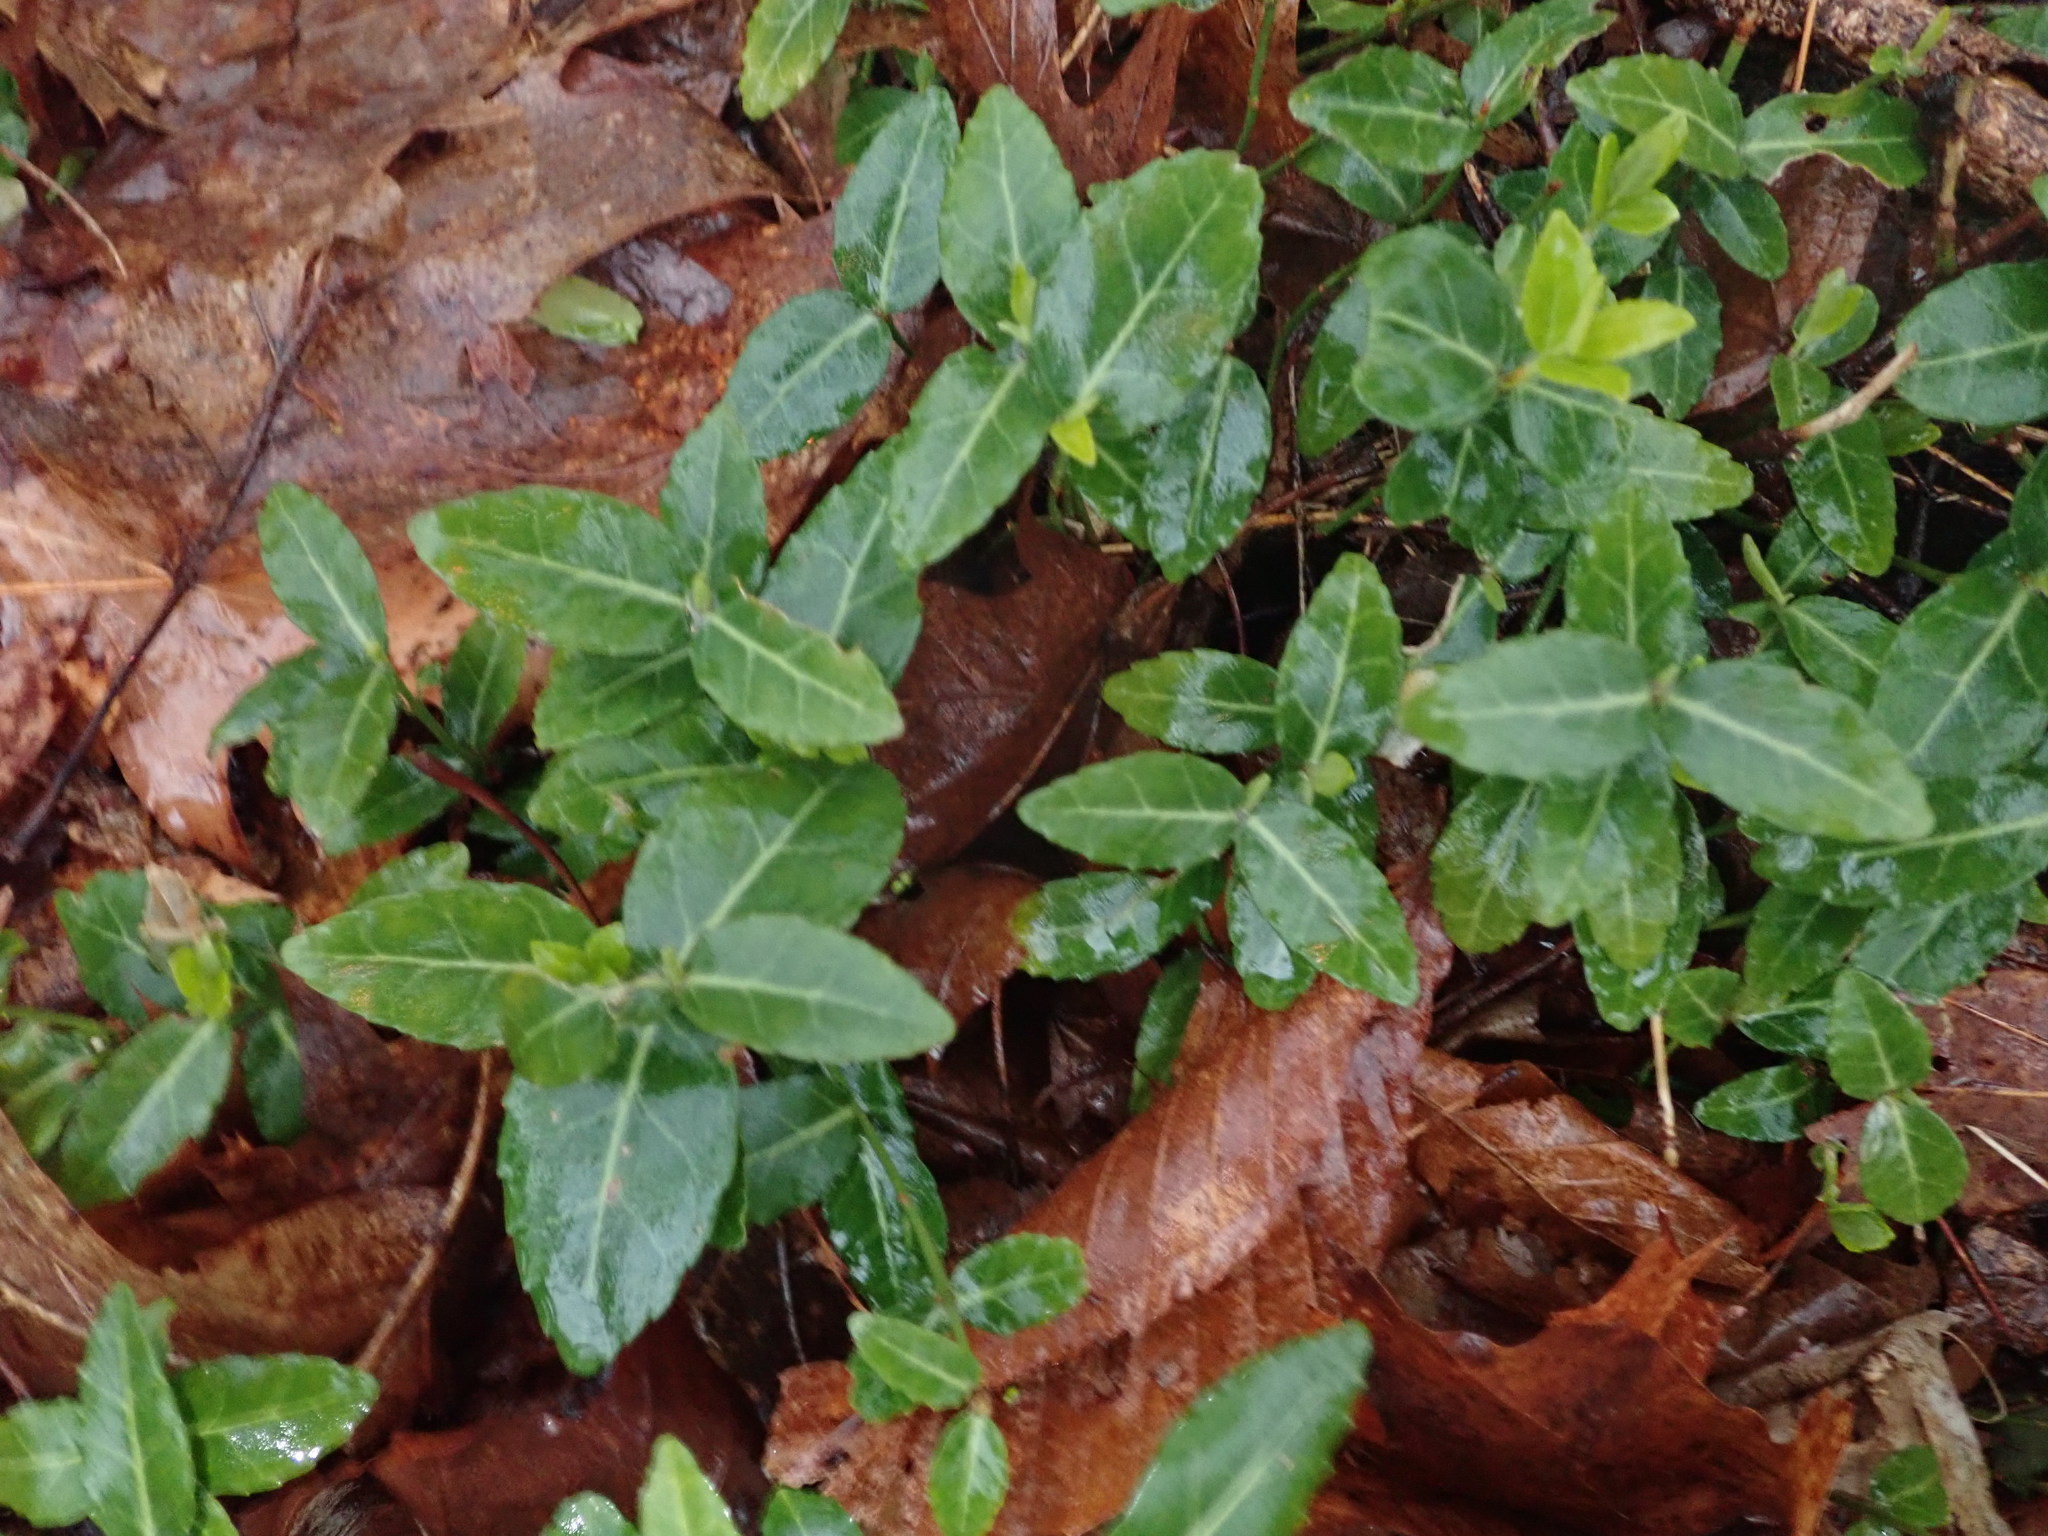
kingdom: Plantae
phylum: Tracheophyta
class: Magnoliopsida
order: Celastrales
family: Celastraceae
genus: Euonymus
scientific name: Euonymus fortunei
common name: Climbing euonymus
